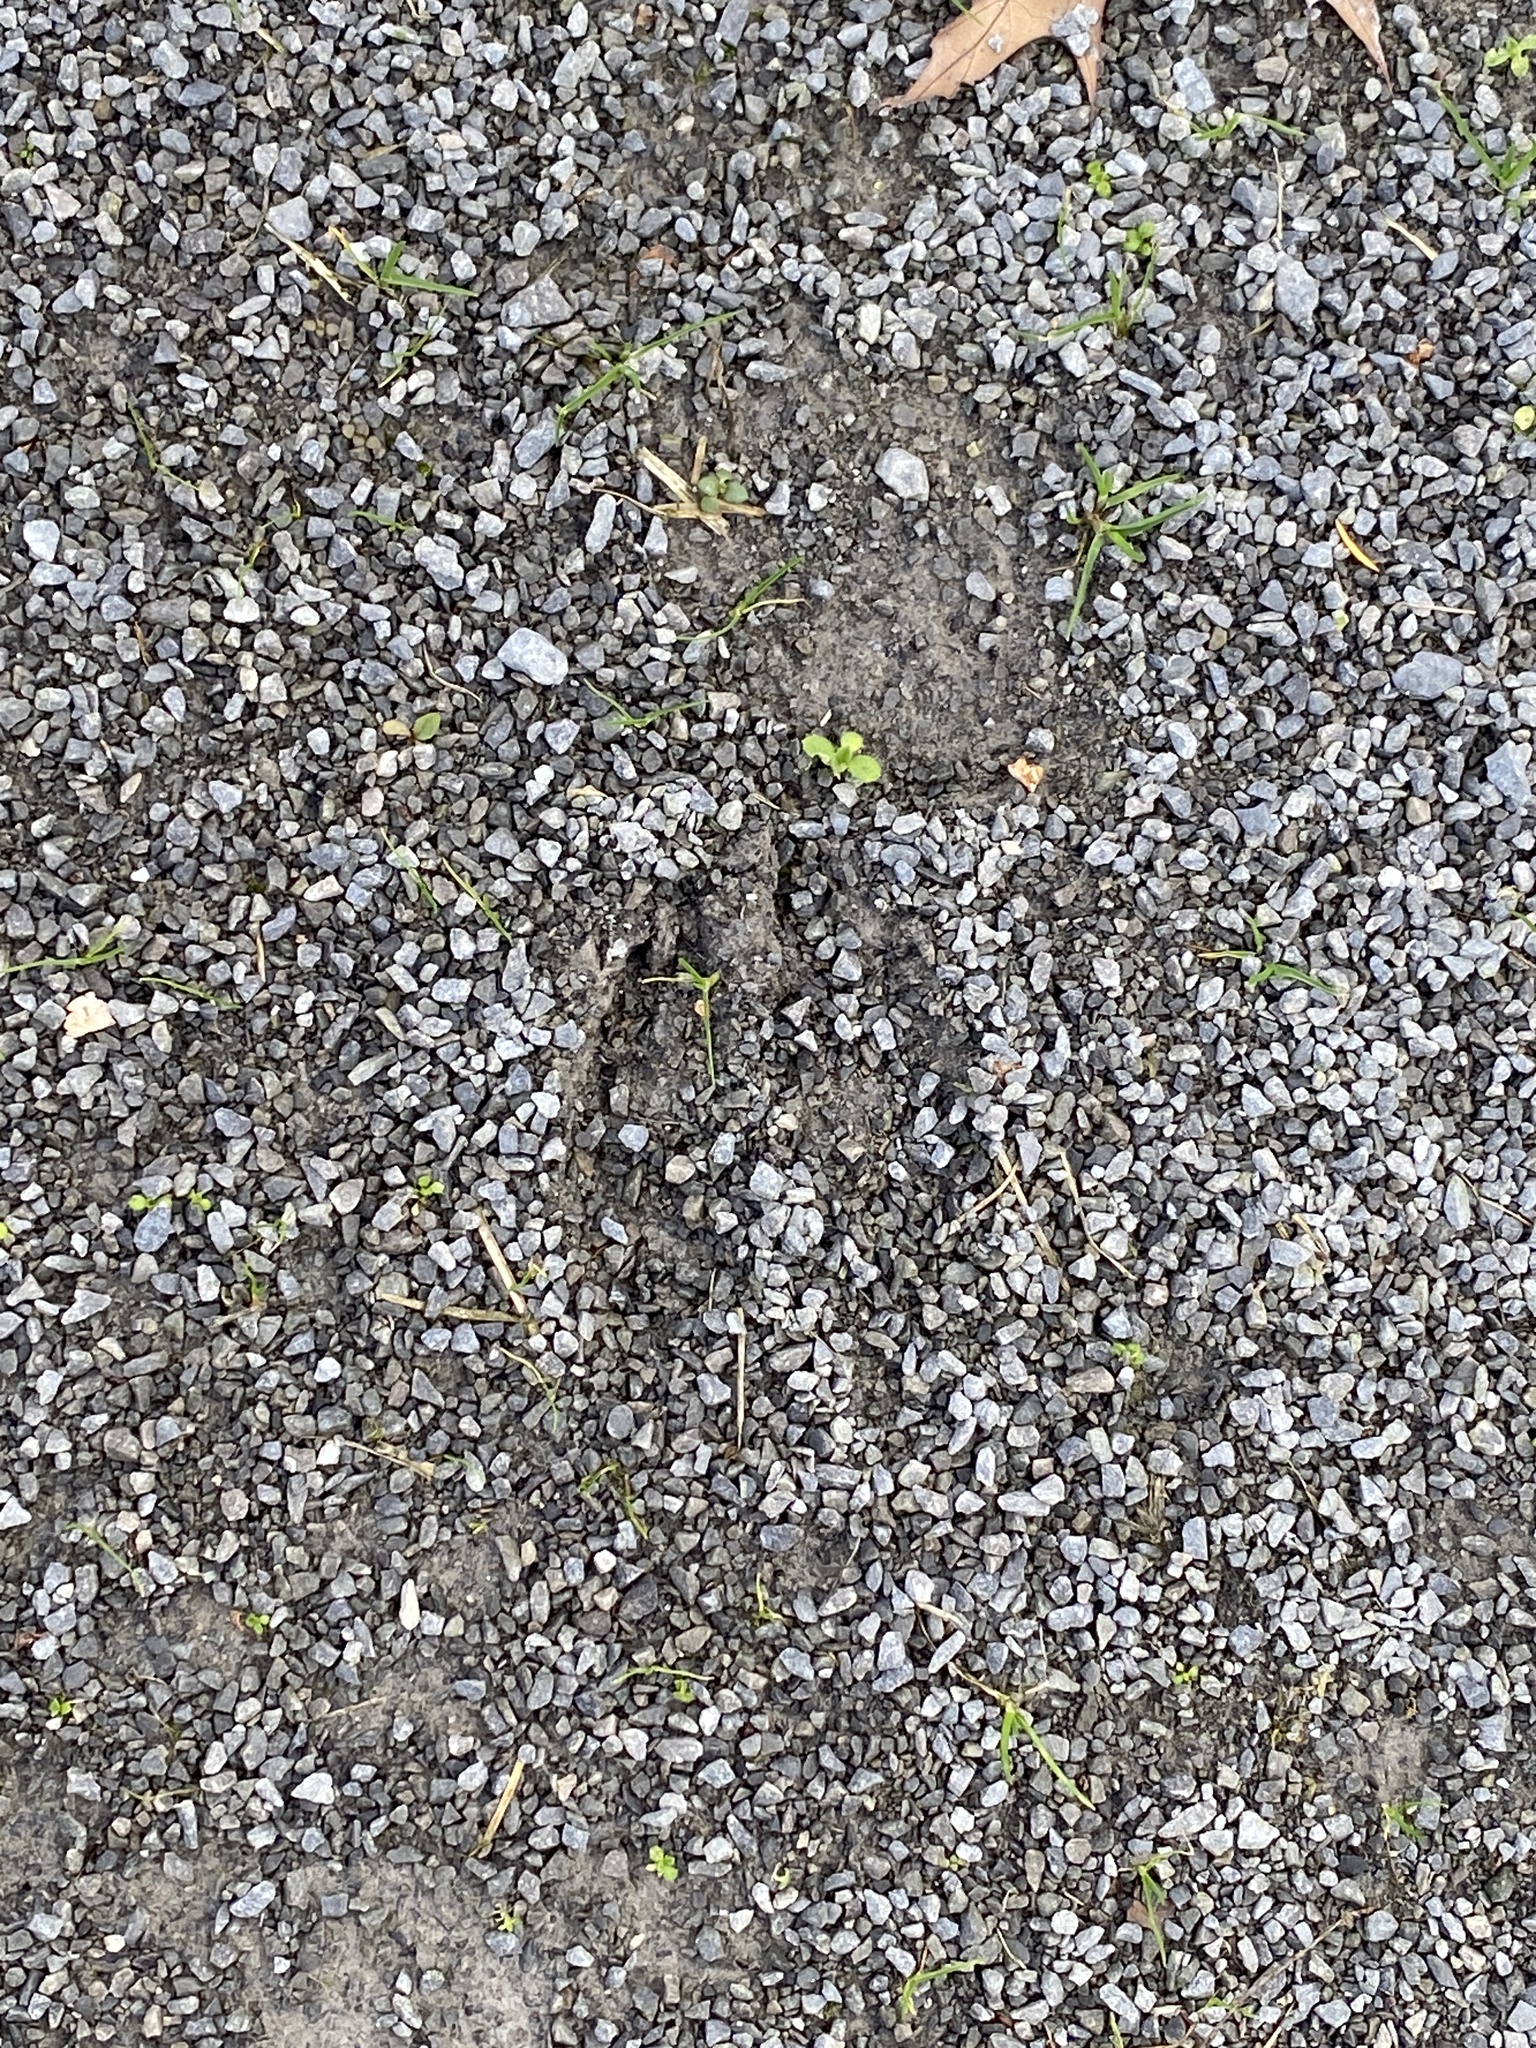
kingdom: Animalia
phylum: Chordata
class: Mammalia
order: Artiodactyla
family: Cervidae
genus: Odocoileus
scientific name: Odocoileus virginianus
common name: White-tailed deer
